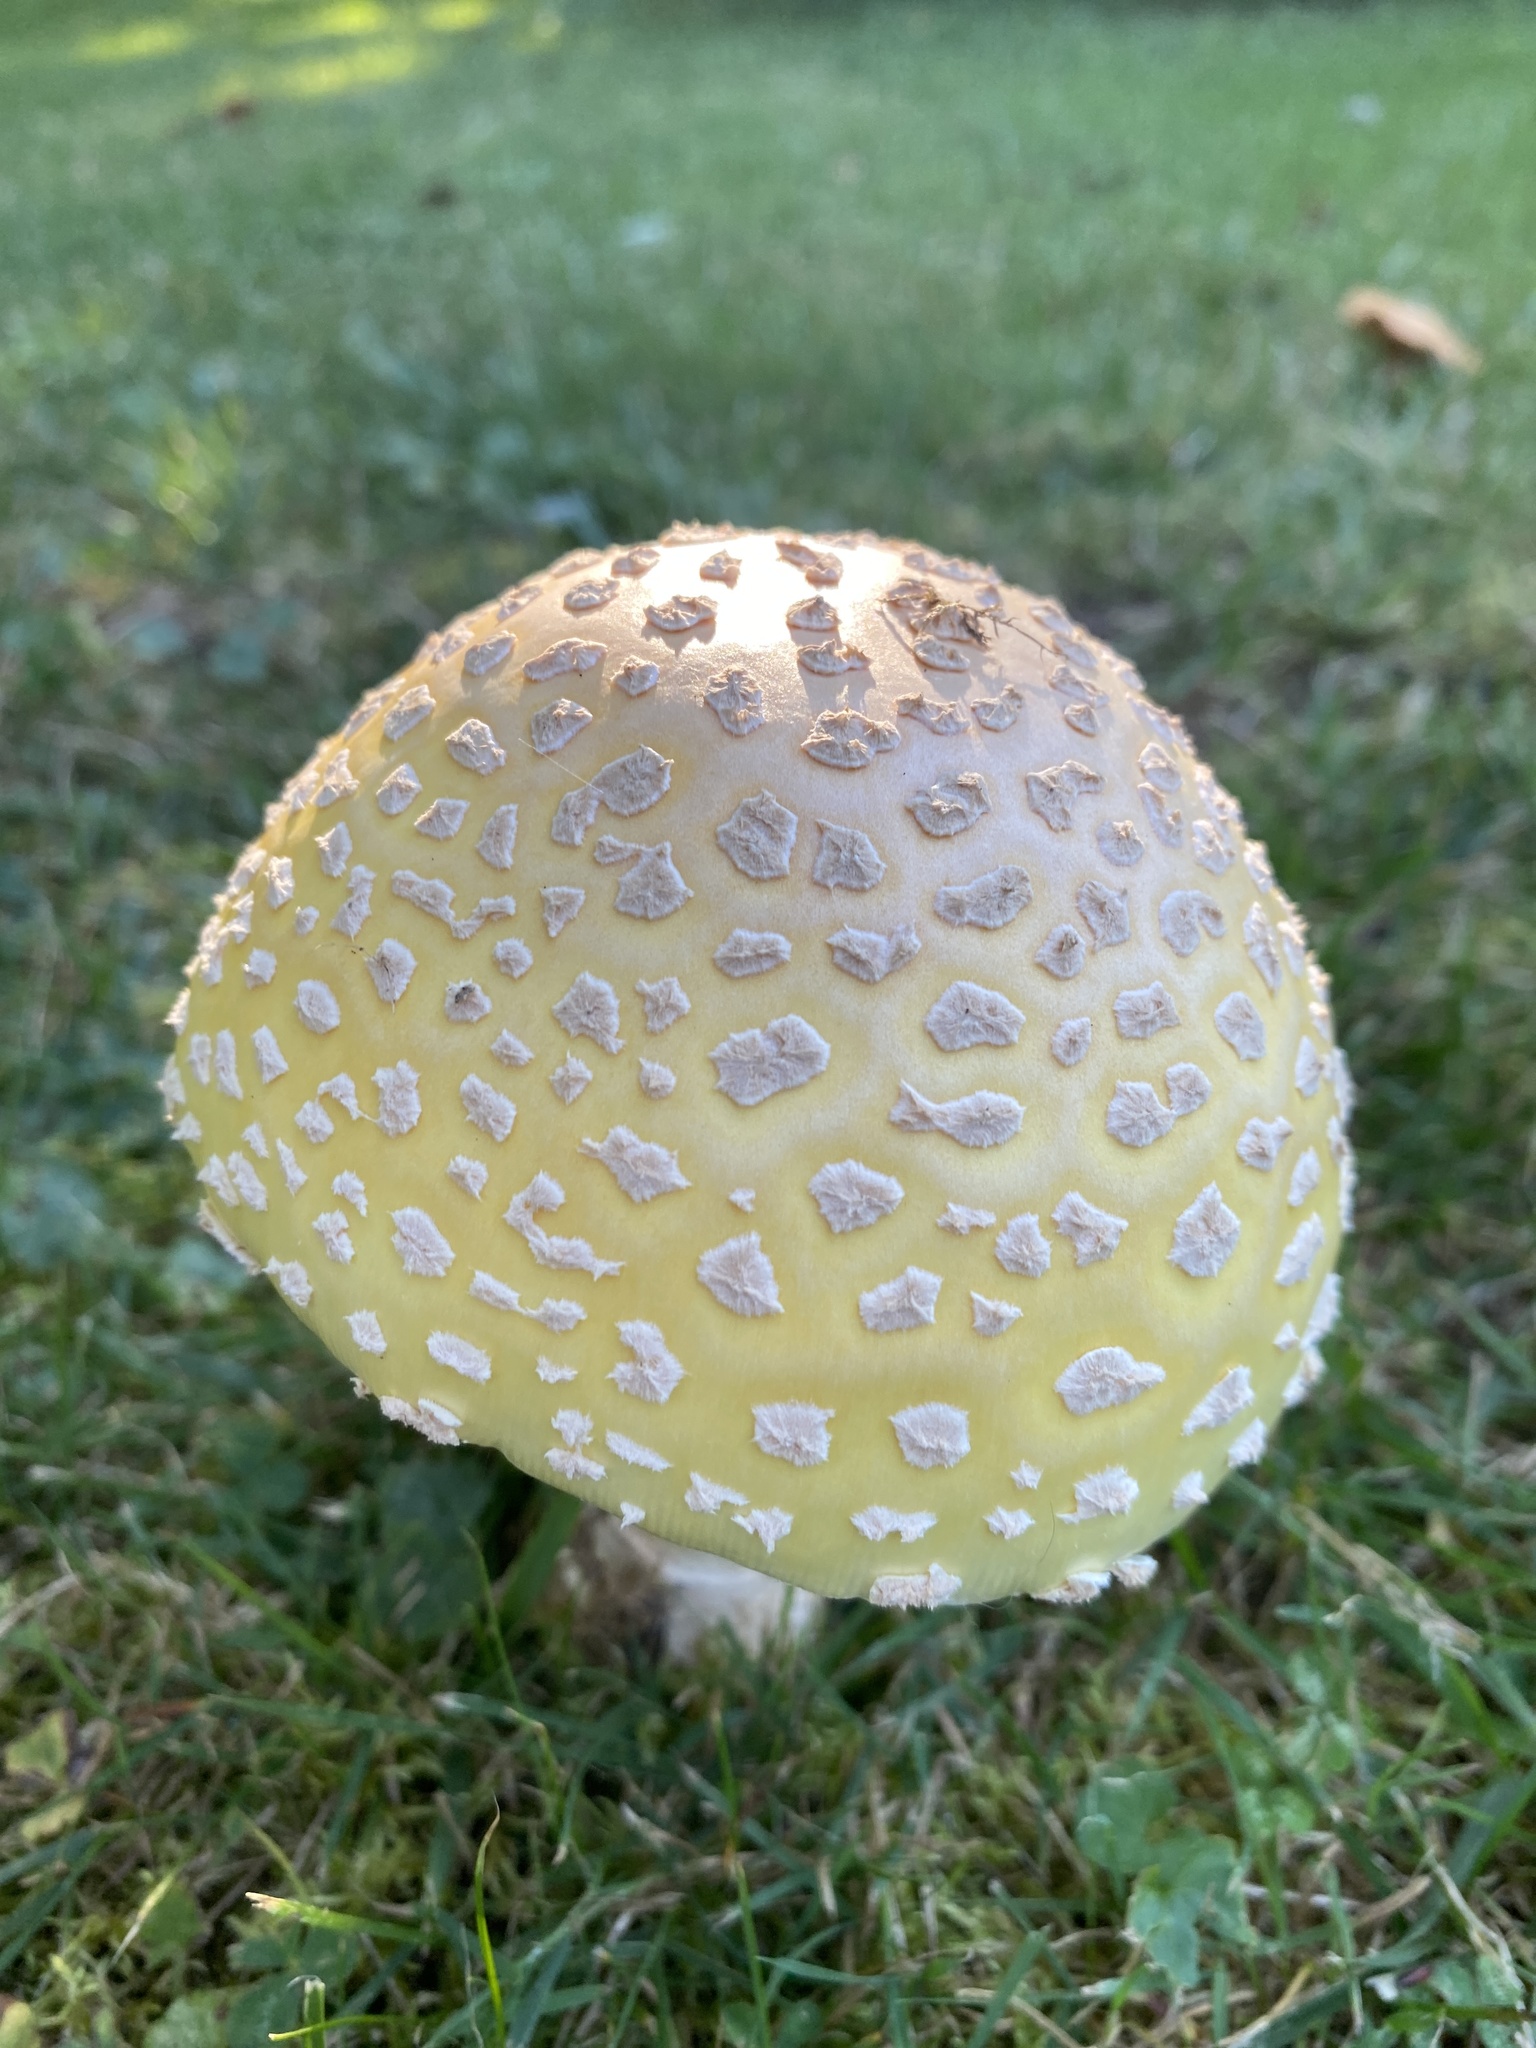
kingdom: Fungi
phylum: Basidiomycota
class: Agaricomycetes
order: Agaricales
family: Amanitaceae
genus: Amanita
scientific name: Amanita muscaria
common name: Fly agaric
